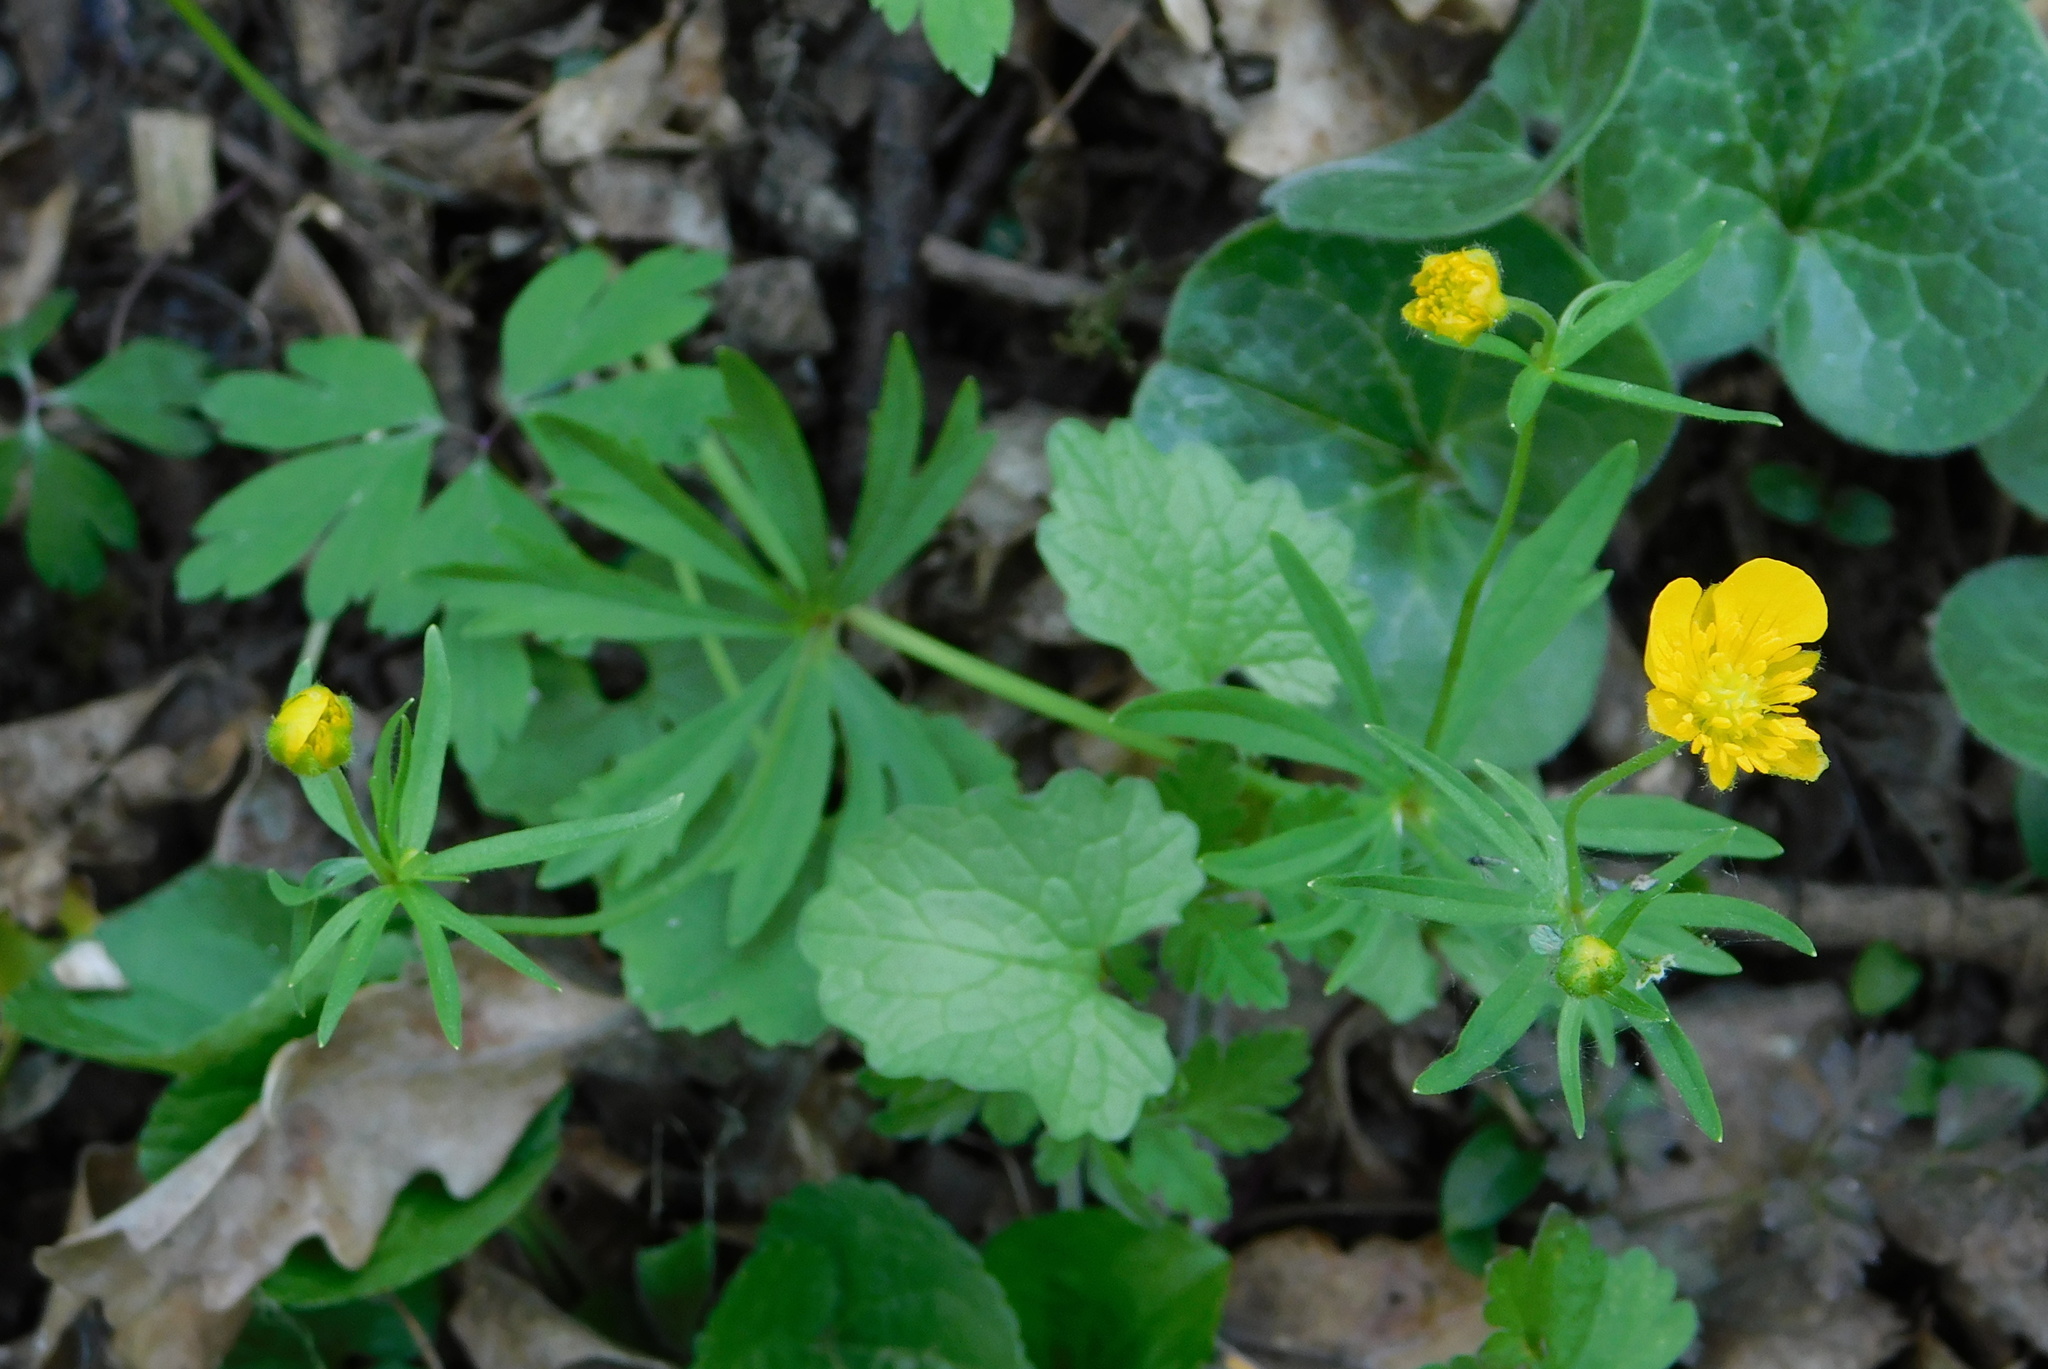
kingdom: Plantae
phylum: Tracheophyta
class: Magnoliopsida
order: Ranunculales
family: Ranunculaceae
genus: Ranunculus
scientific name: Ranunculus auricomus
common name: Goldilocks buttercup
